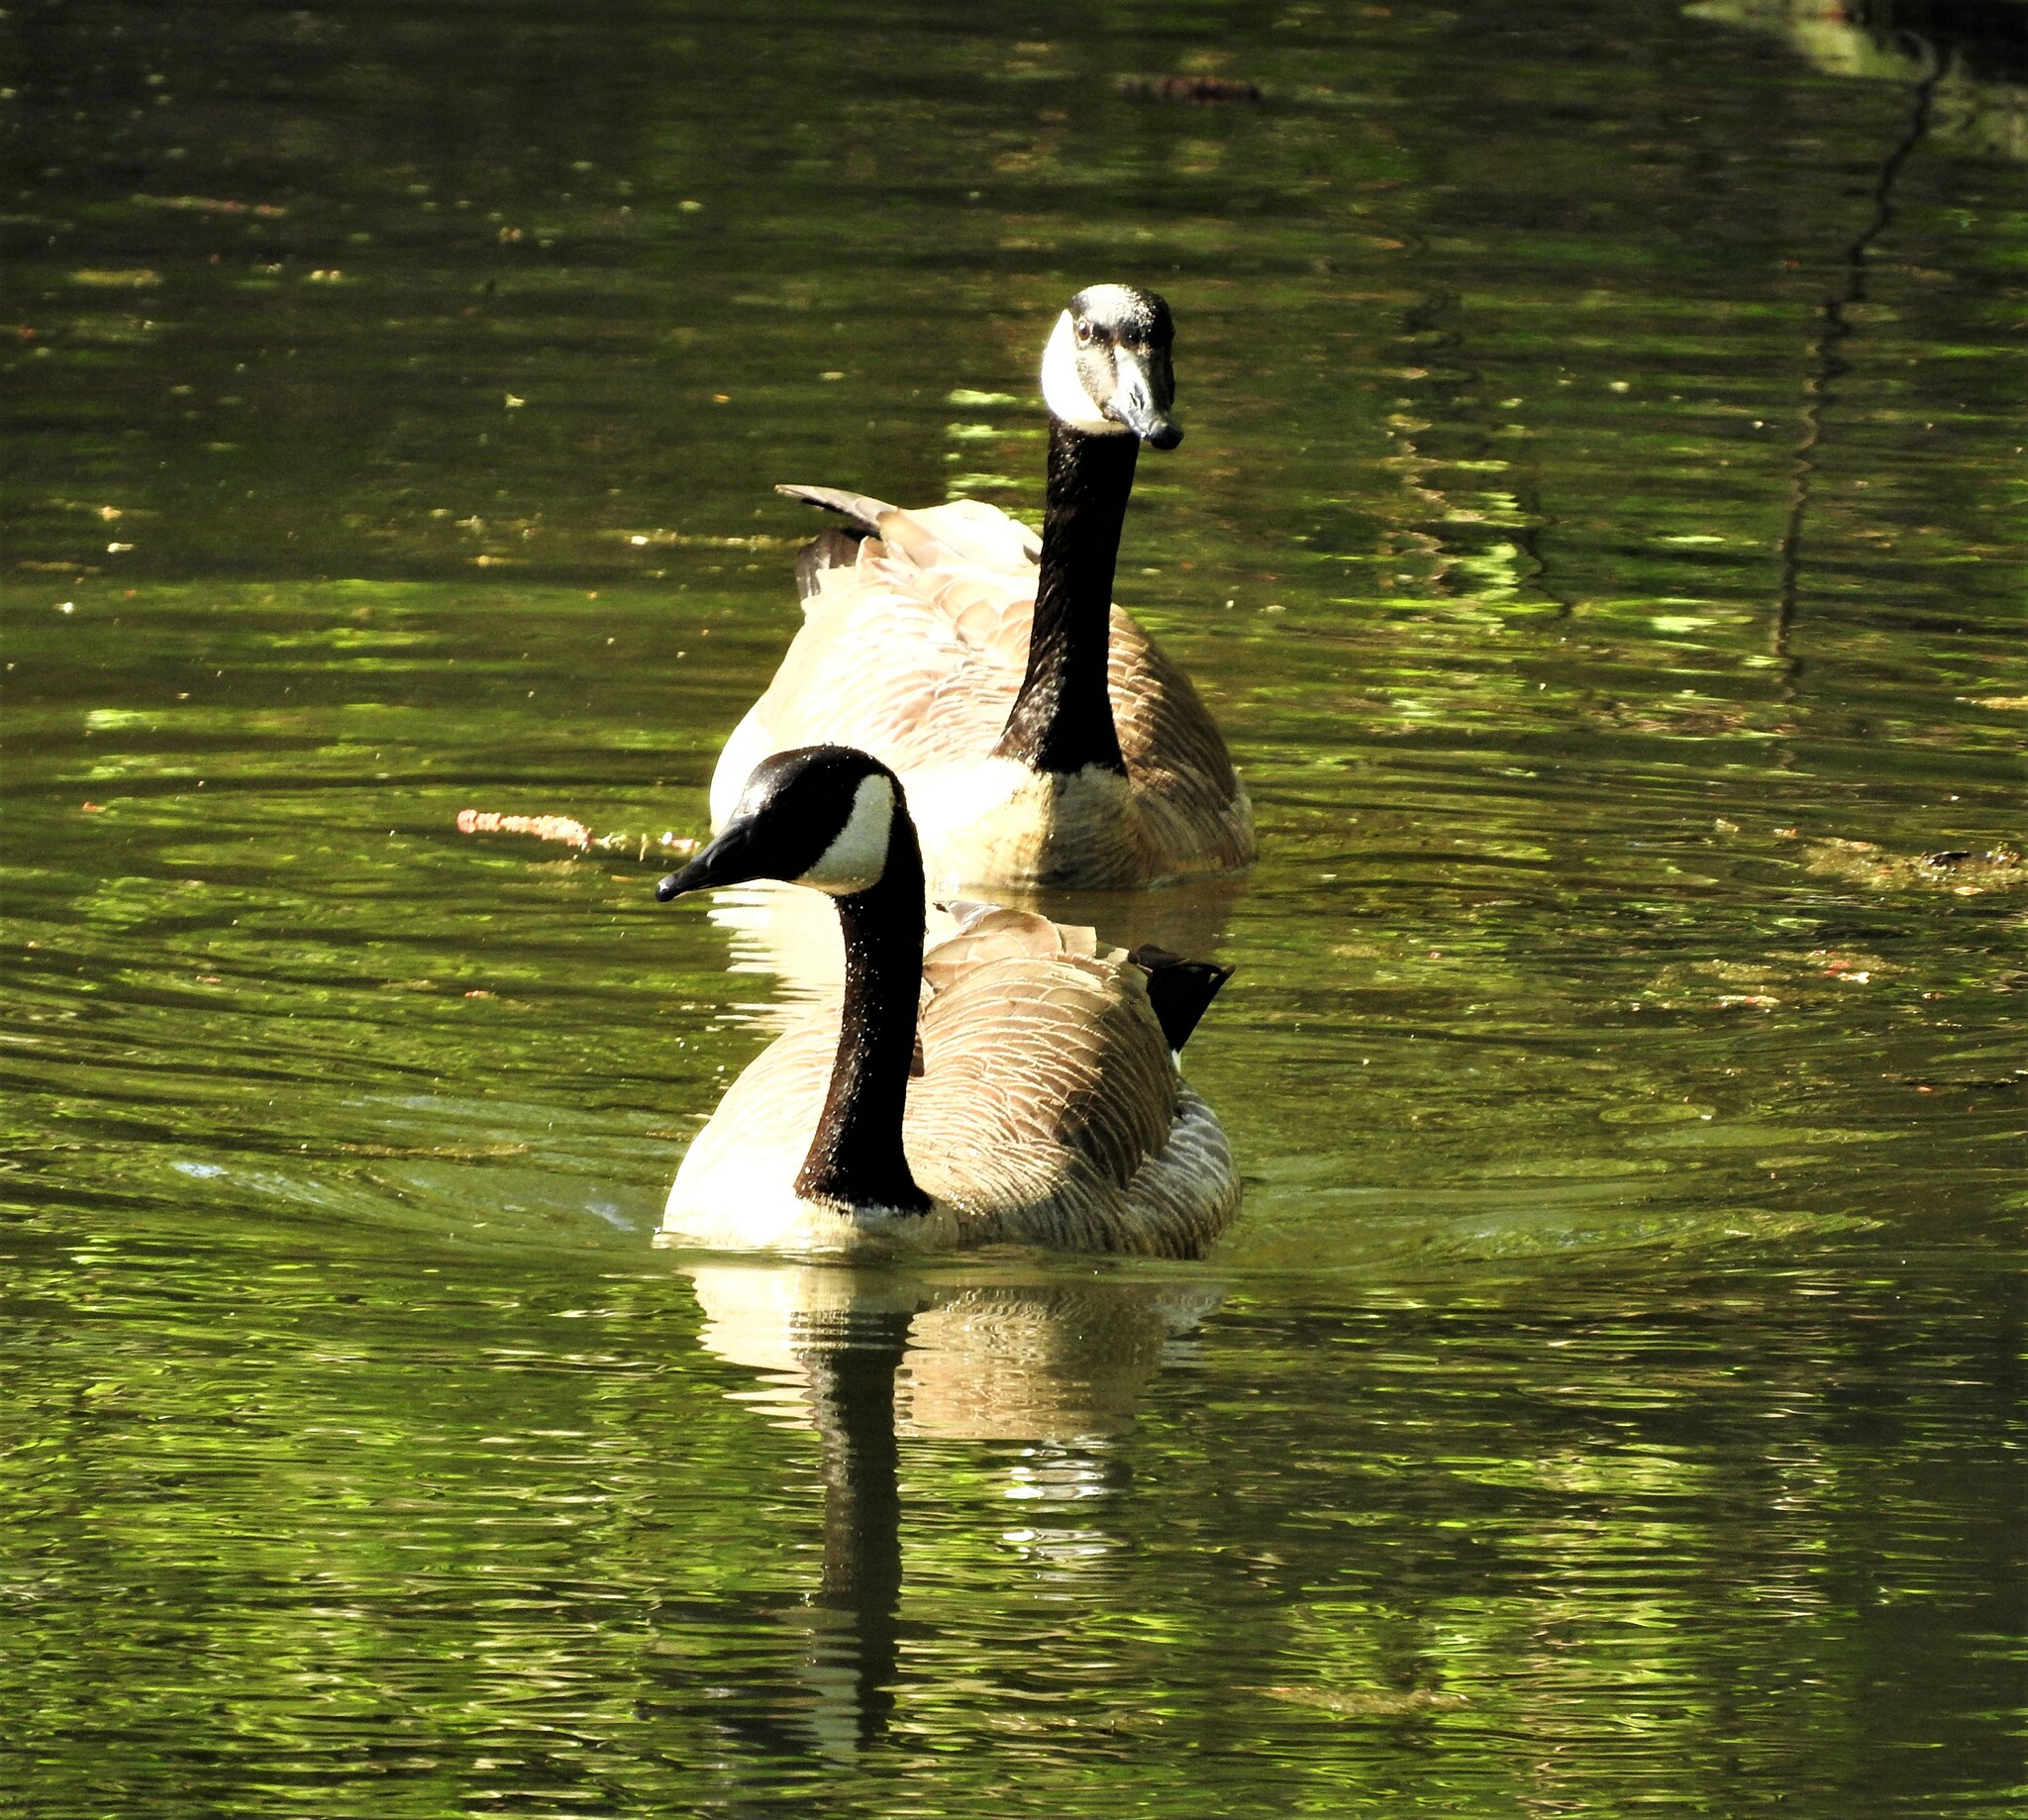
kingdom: Animalia
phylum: Chordata
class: Aves
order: Anseriformes
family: Anatidae
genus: Branta
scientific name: Branta canadensis
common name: Canada goose
